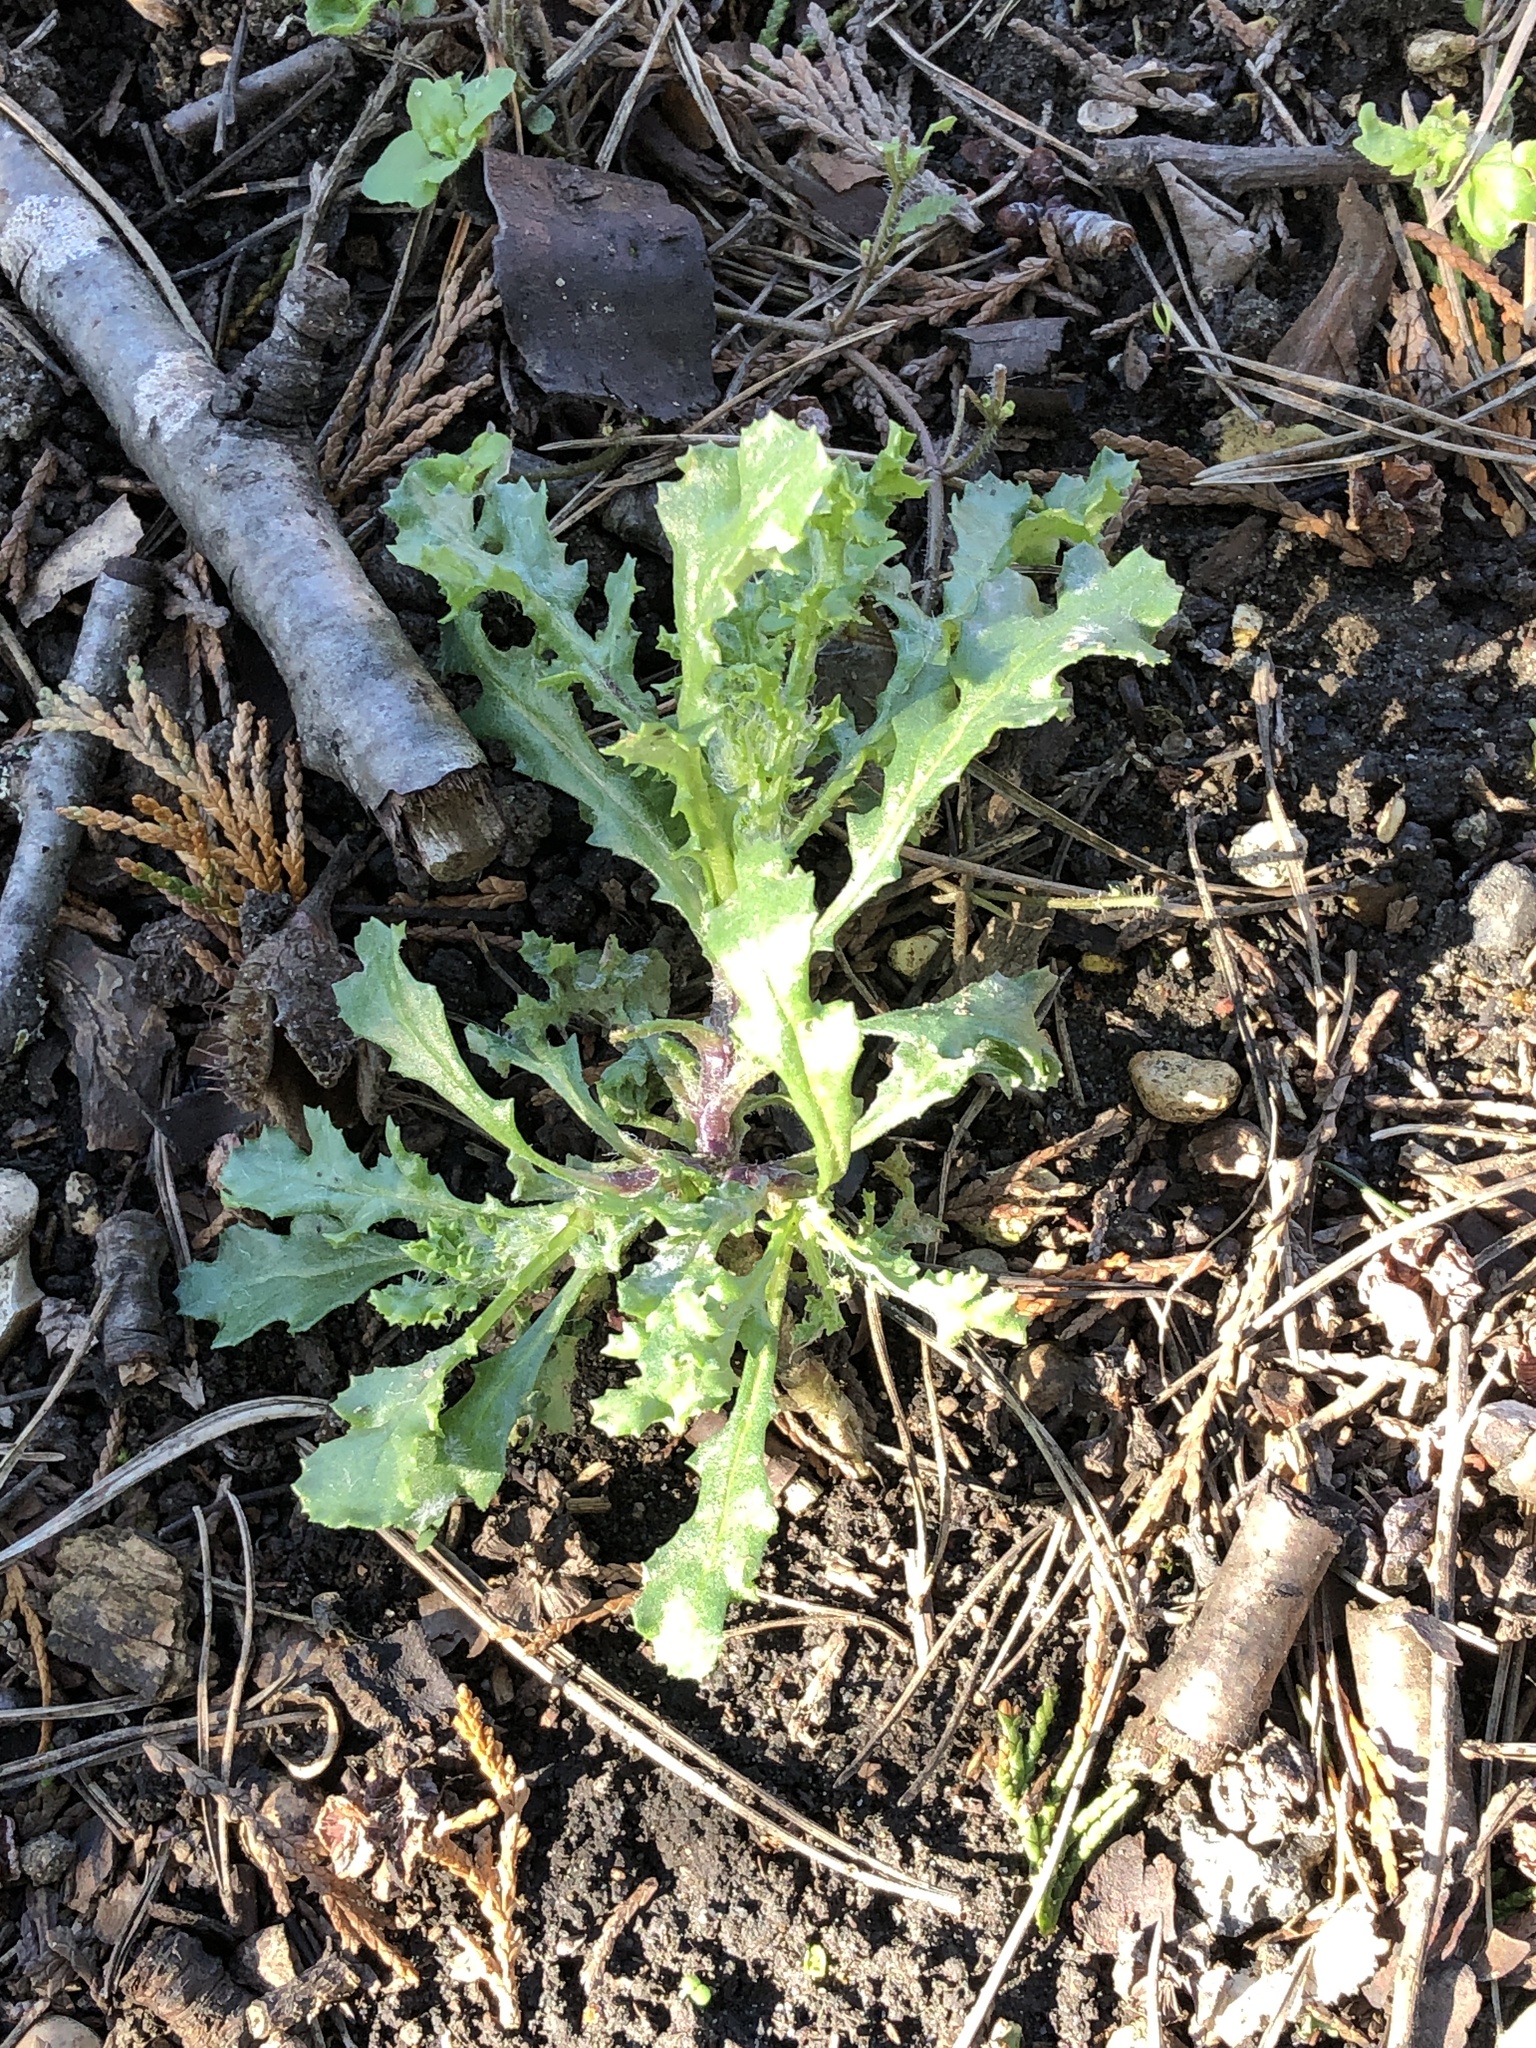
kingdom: Plantae
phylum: Tracheophyta
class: Magnoliopsida
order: Asterales
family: Asteraceae
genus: Senecio
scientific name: Senecio vulgaris
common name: Old-man-in-the-spring
